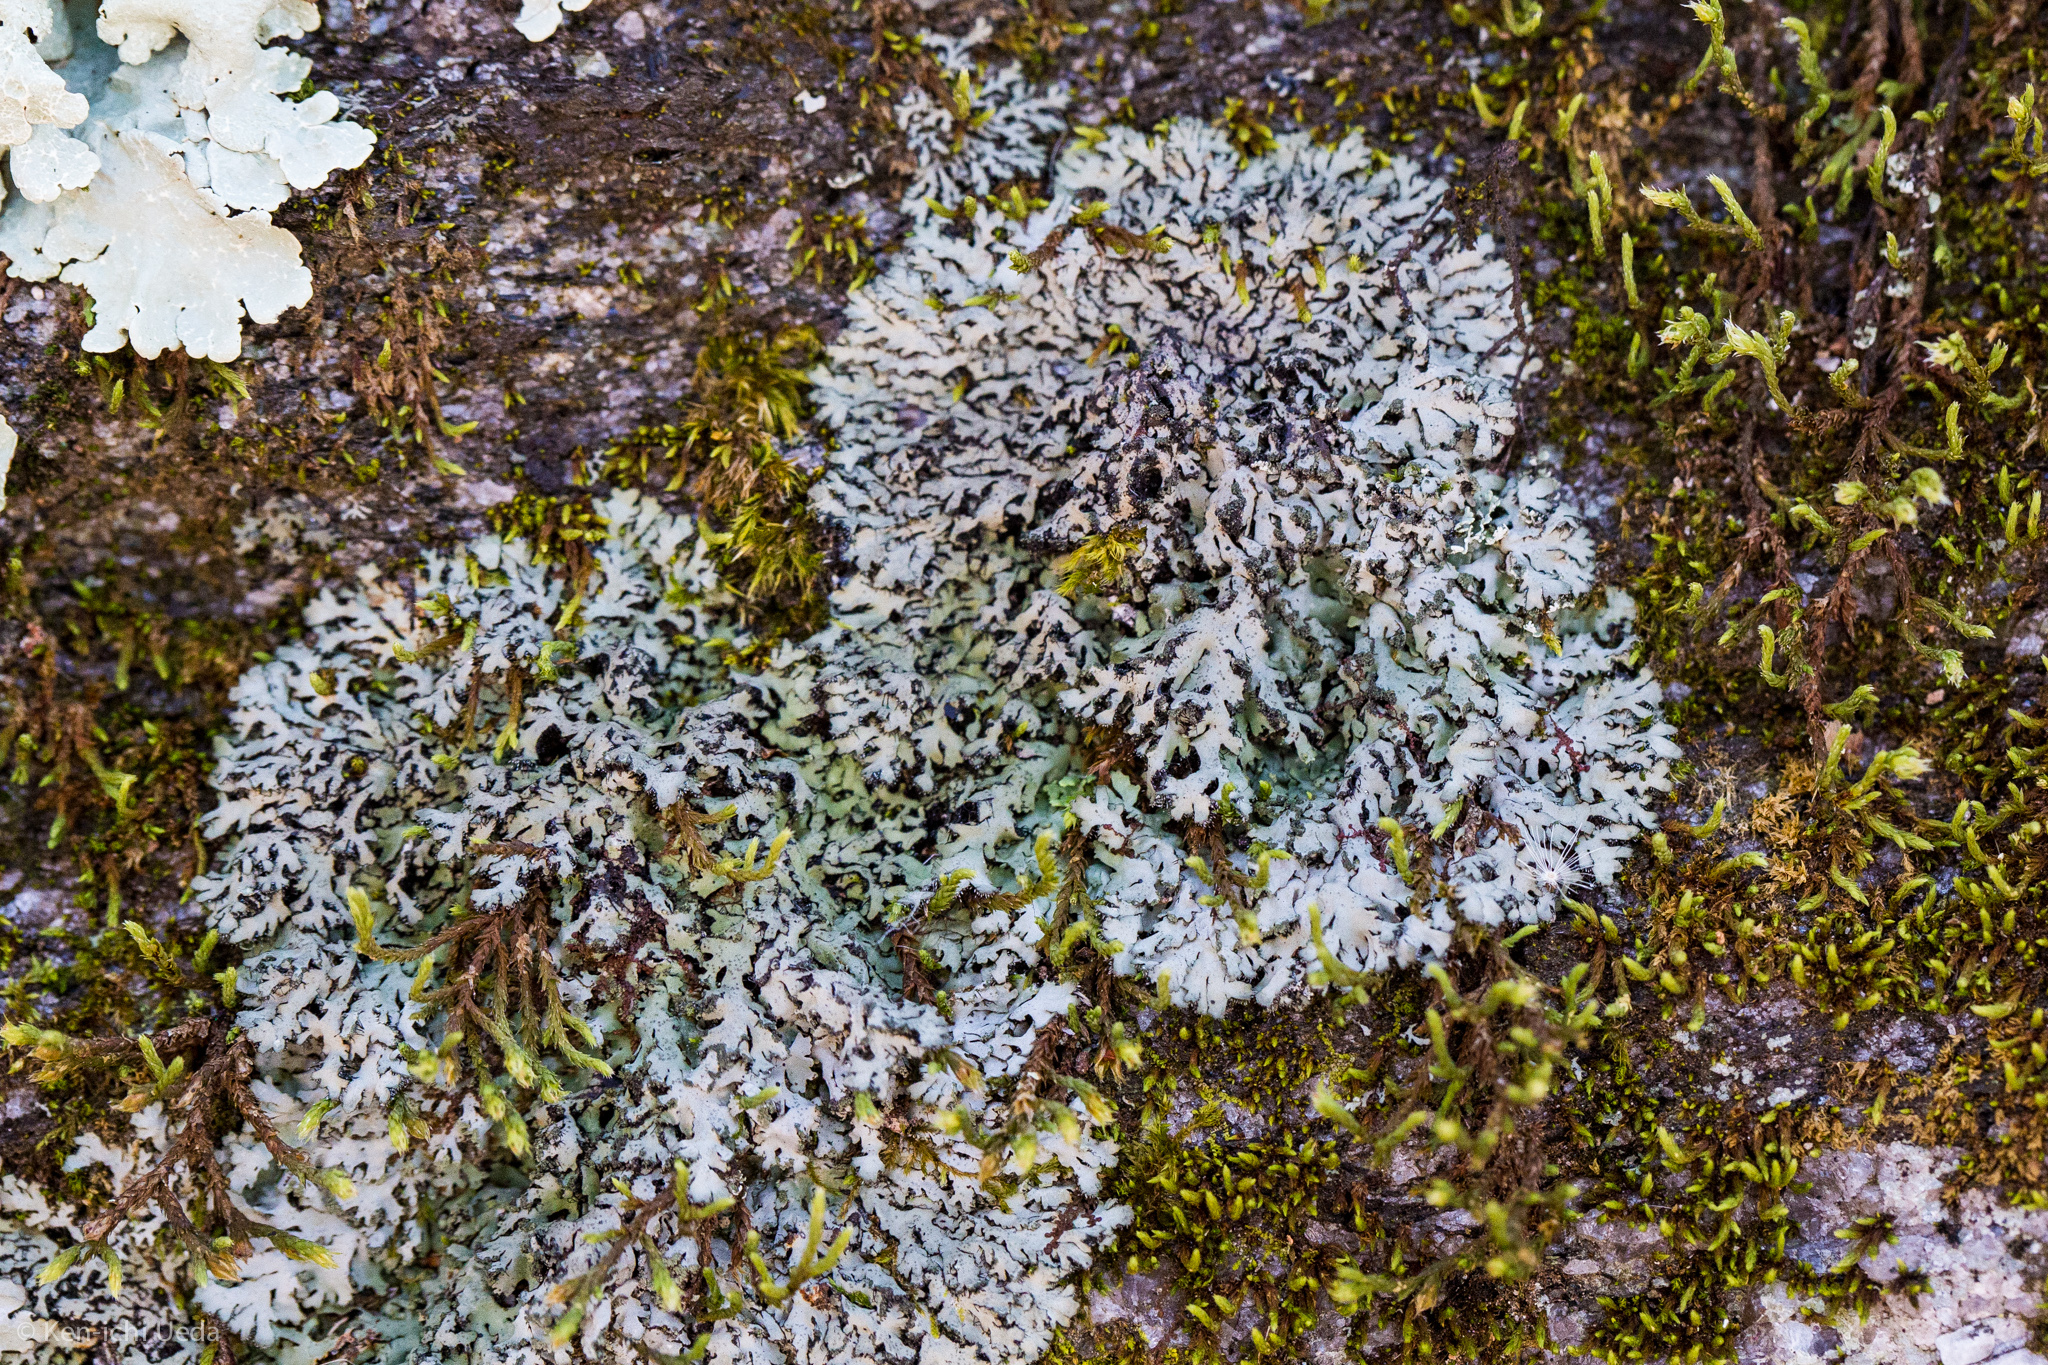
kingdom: Fungi
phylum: Ascomycota
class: Lecanoromycetes
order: Caliciales
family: Physciaceae
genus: Phaeophyscia
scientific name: Phaeophyscia hispidula
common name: Whiskered shadow lichen
